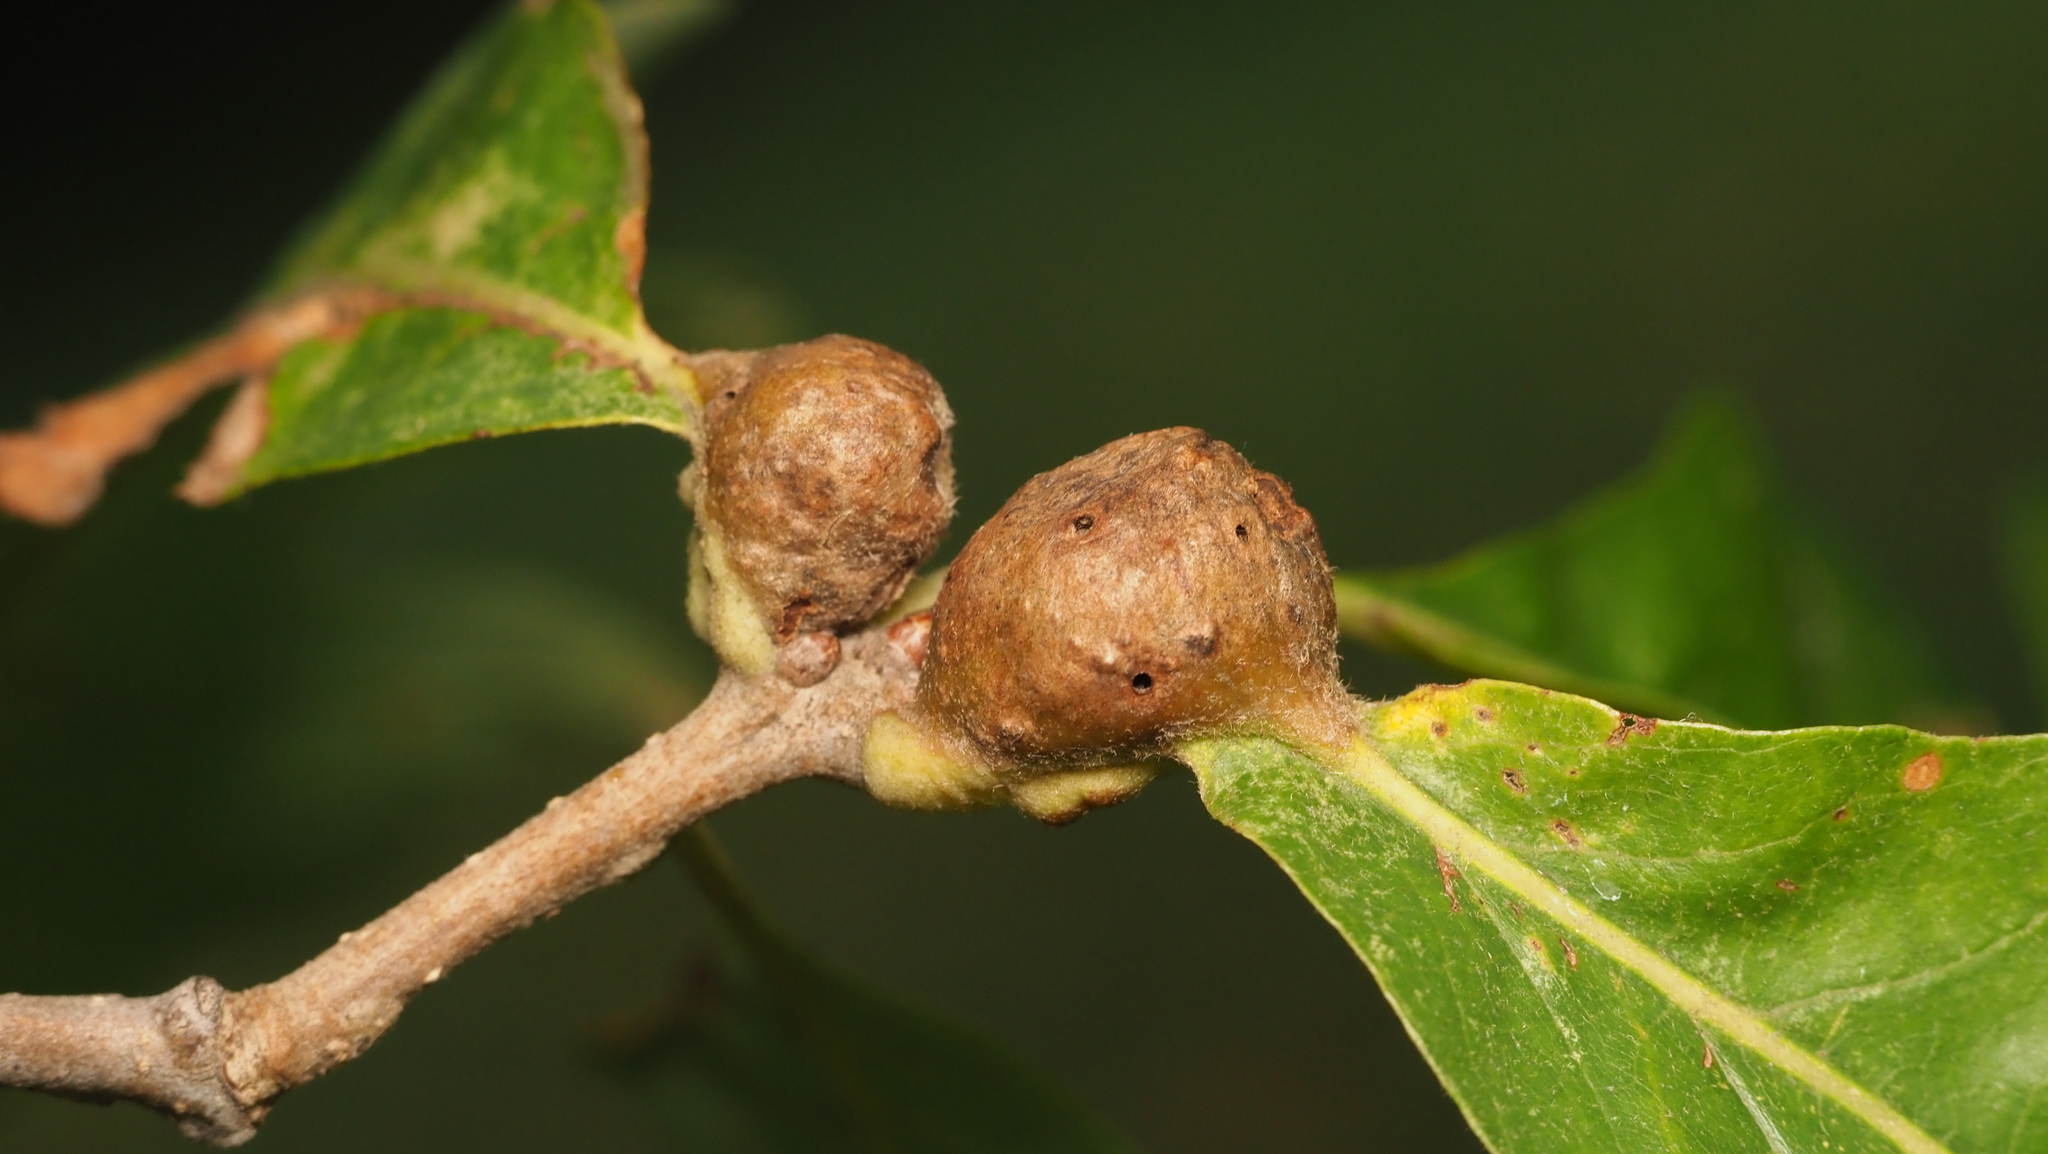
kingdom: Animalia
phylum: Arthropoda
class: Insecta
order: Hymenoptera
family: Cynipidae
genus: Andricus
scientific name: Andricus
